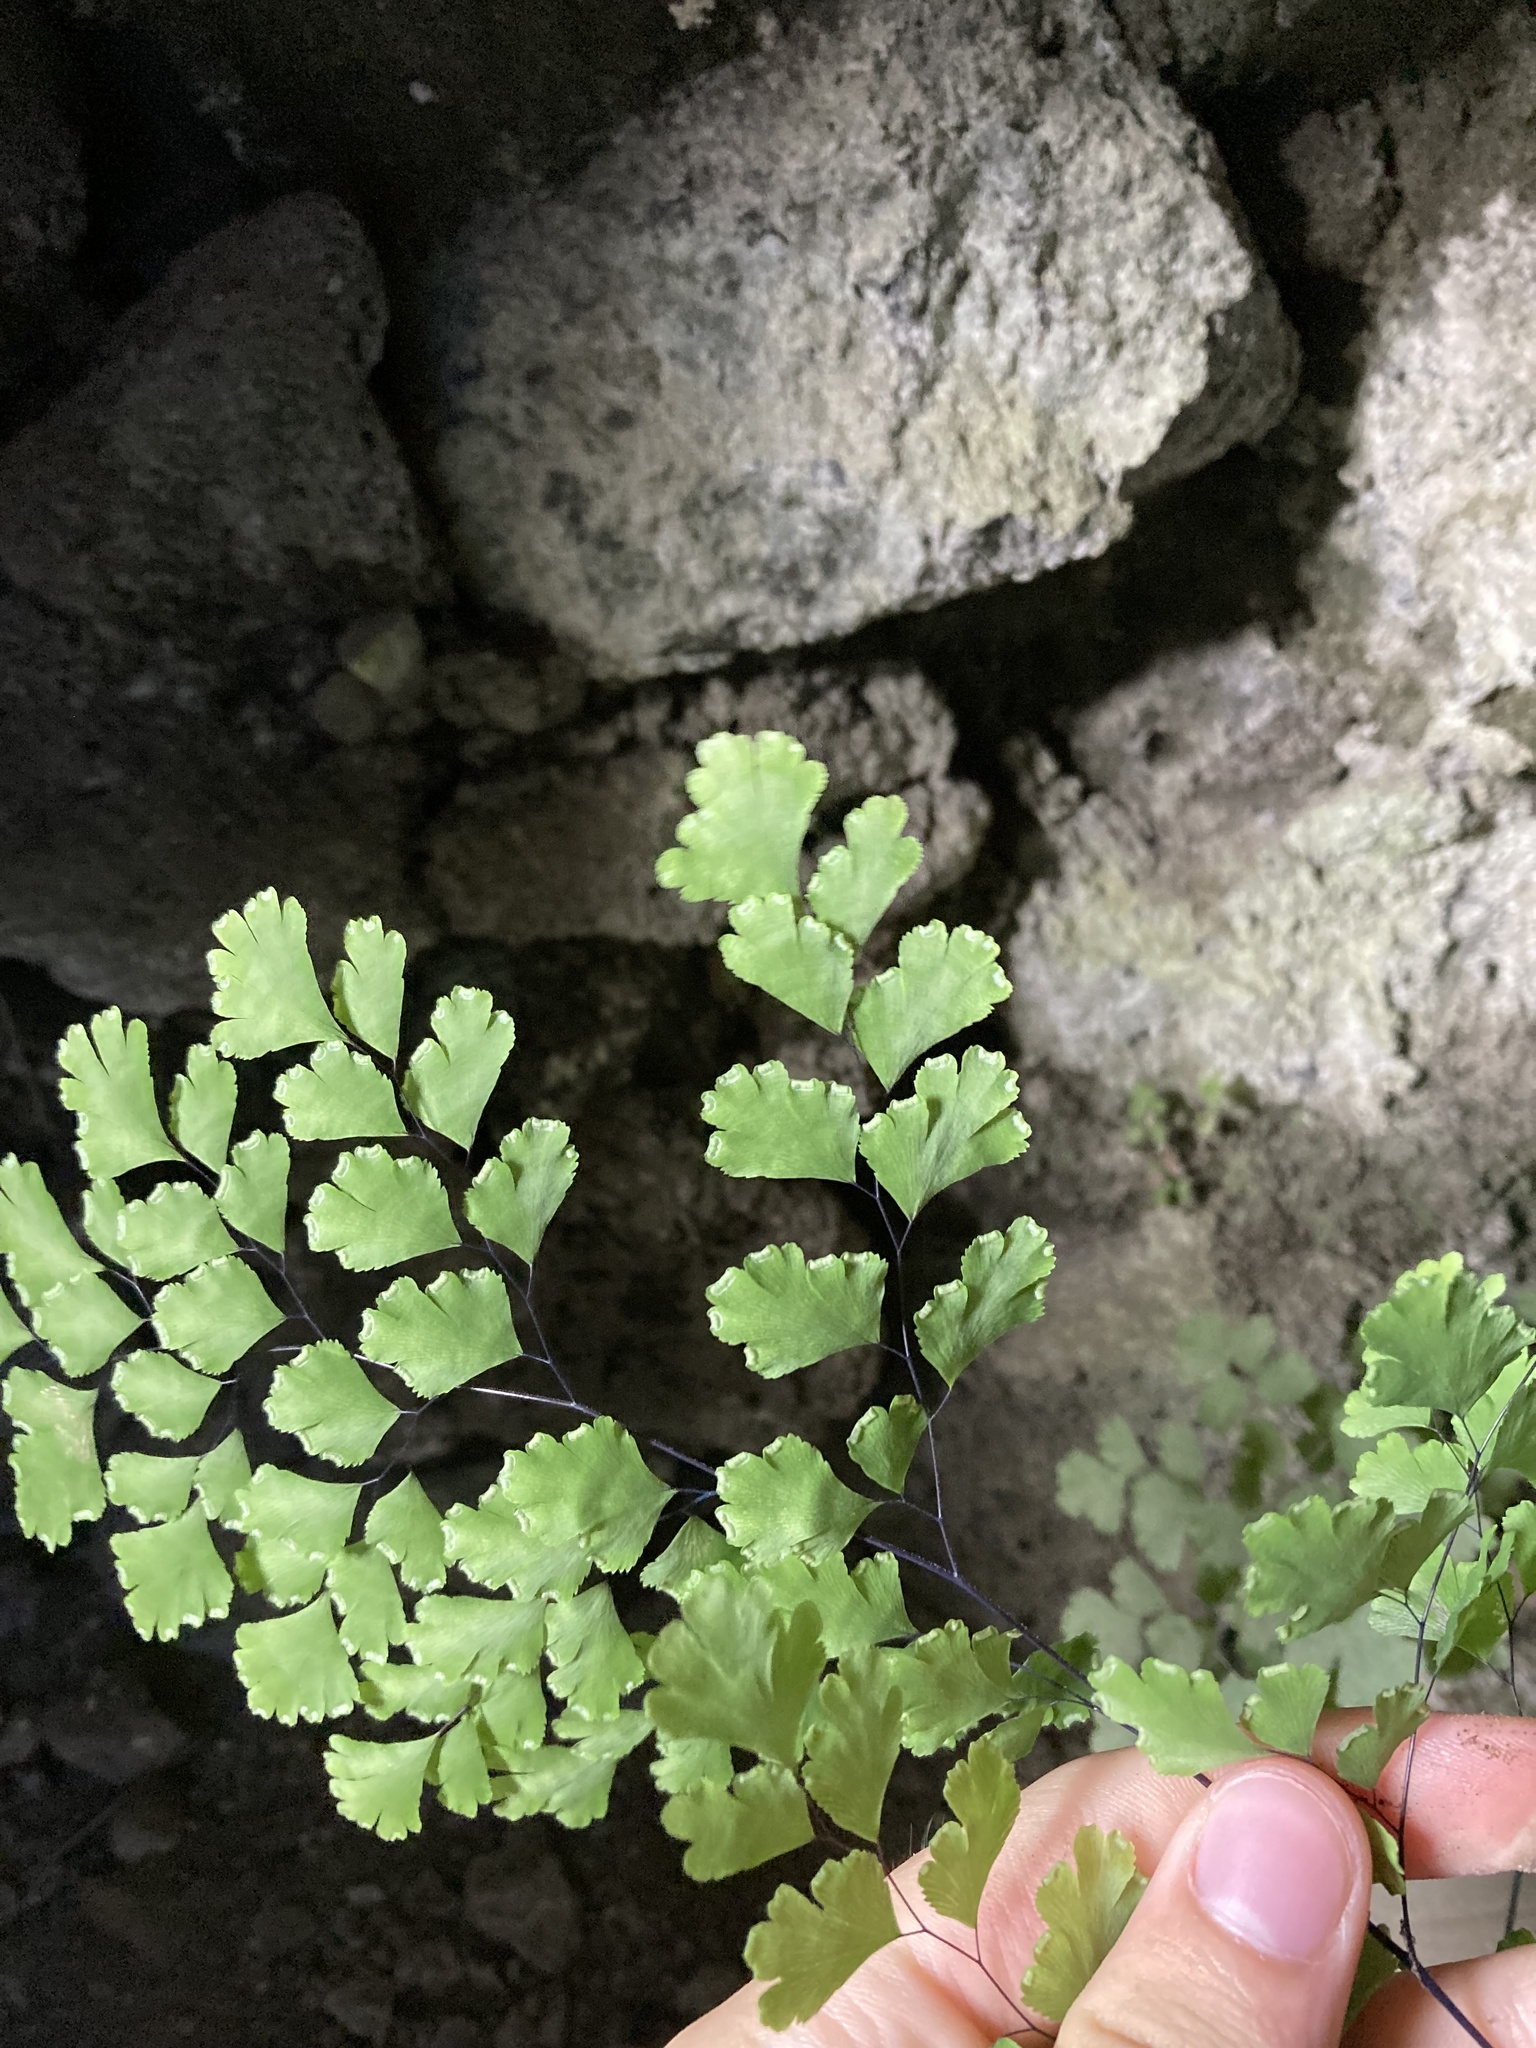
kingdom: Plantae
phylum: Tracheophyta
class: Polypodiopsida
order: Polypodiales
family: Pteridaceae
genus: Adiantum
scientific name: Adiantum capillus-veneris
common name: Maidenhair fern
